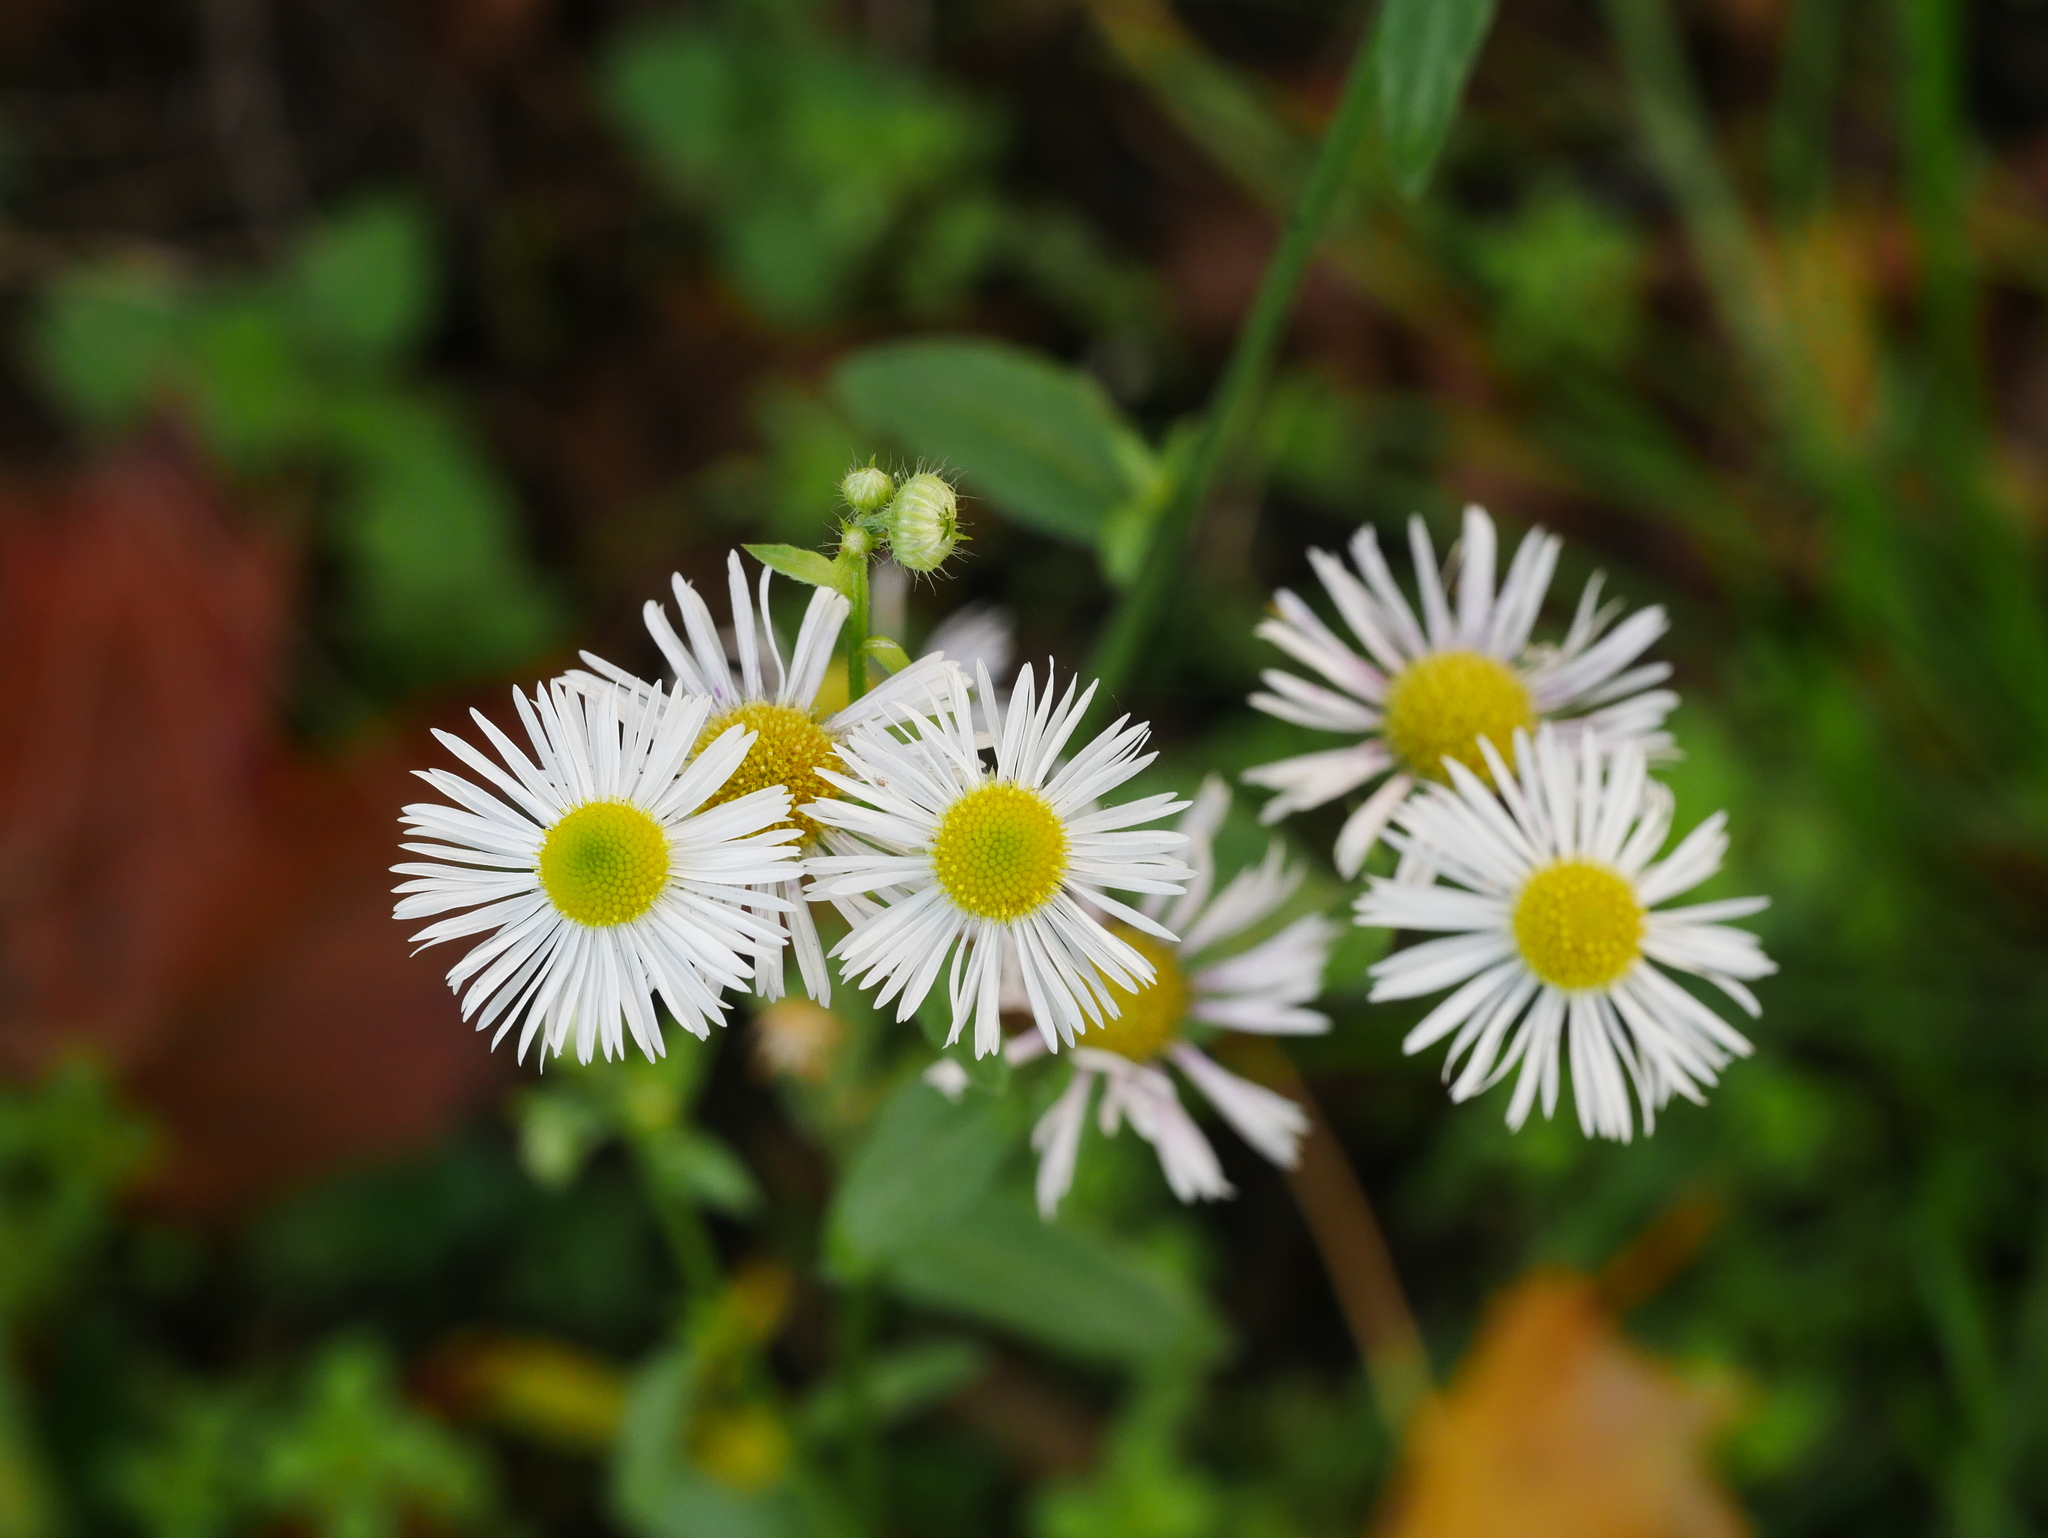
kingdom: Plantae
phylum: Tracheophyta
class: Magnoliopsida
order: Asterales
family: Asteraceae
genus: Erigeron
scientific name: Erigeron annuus
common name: Tall fleabane
